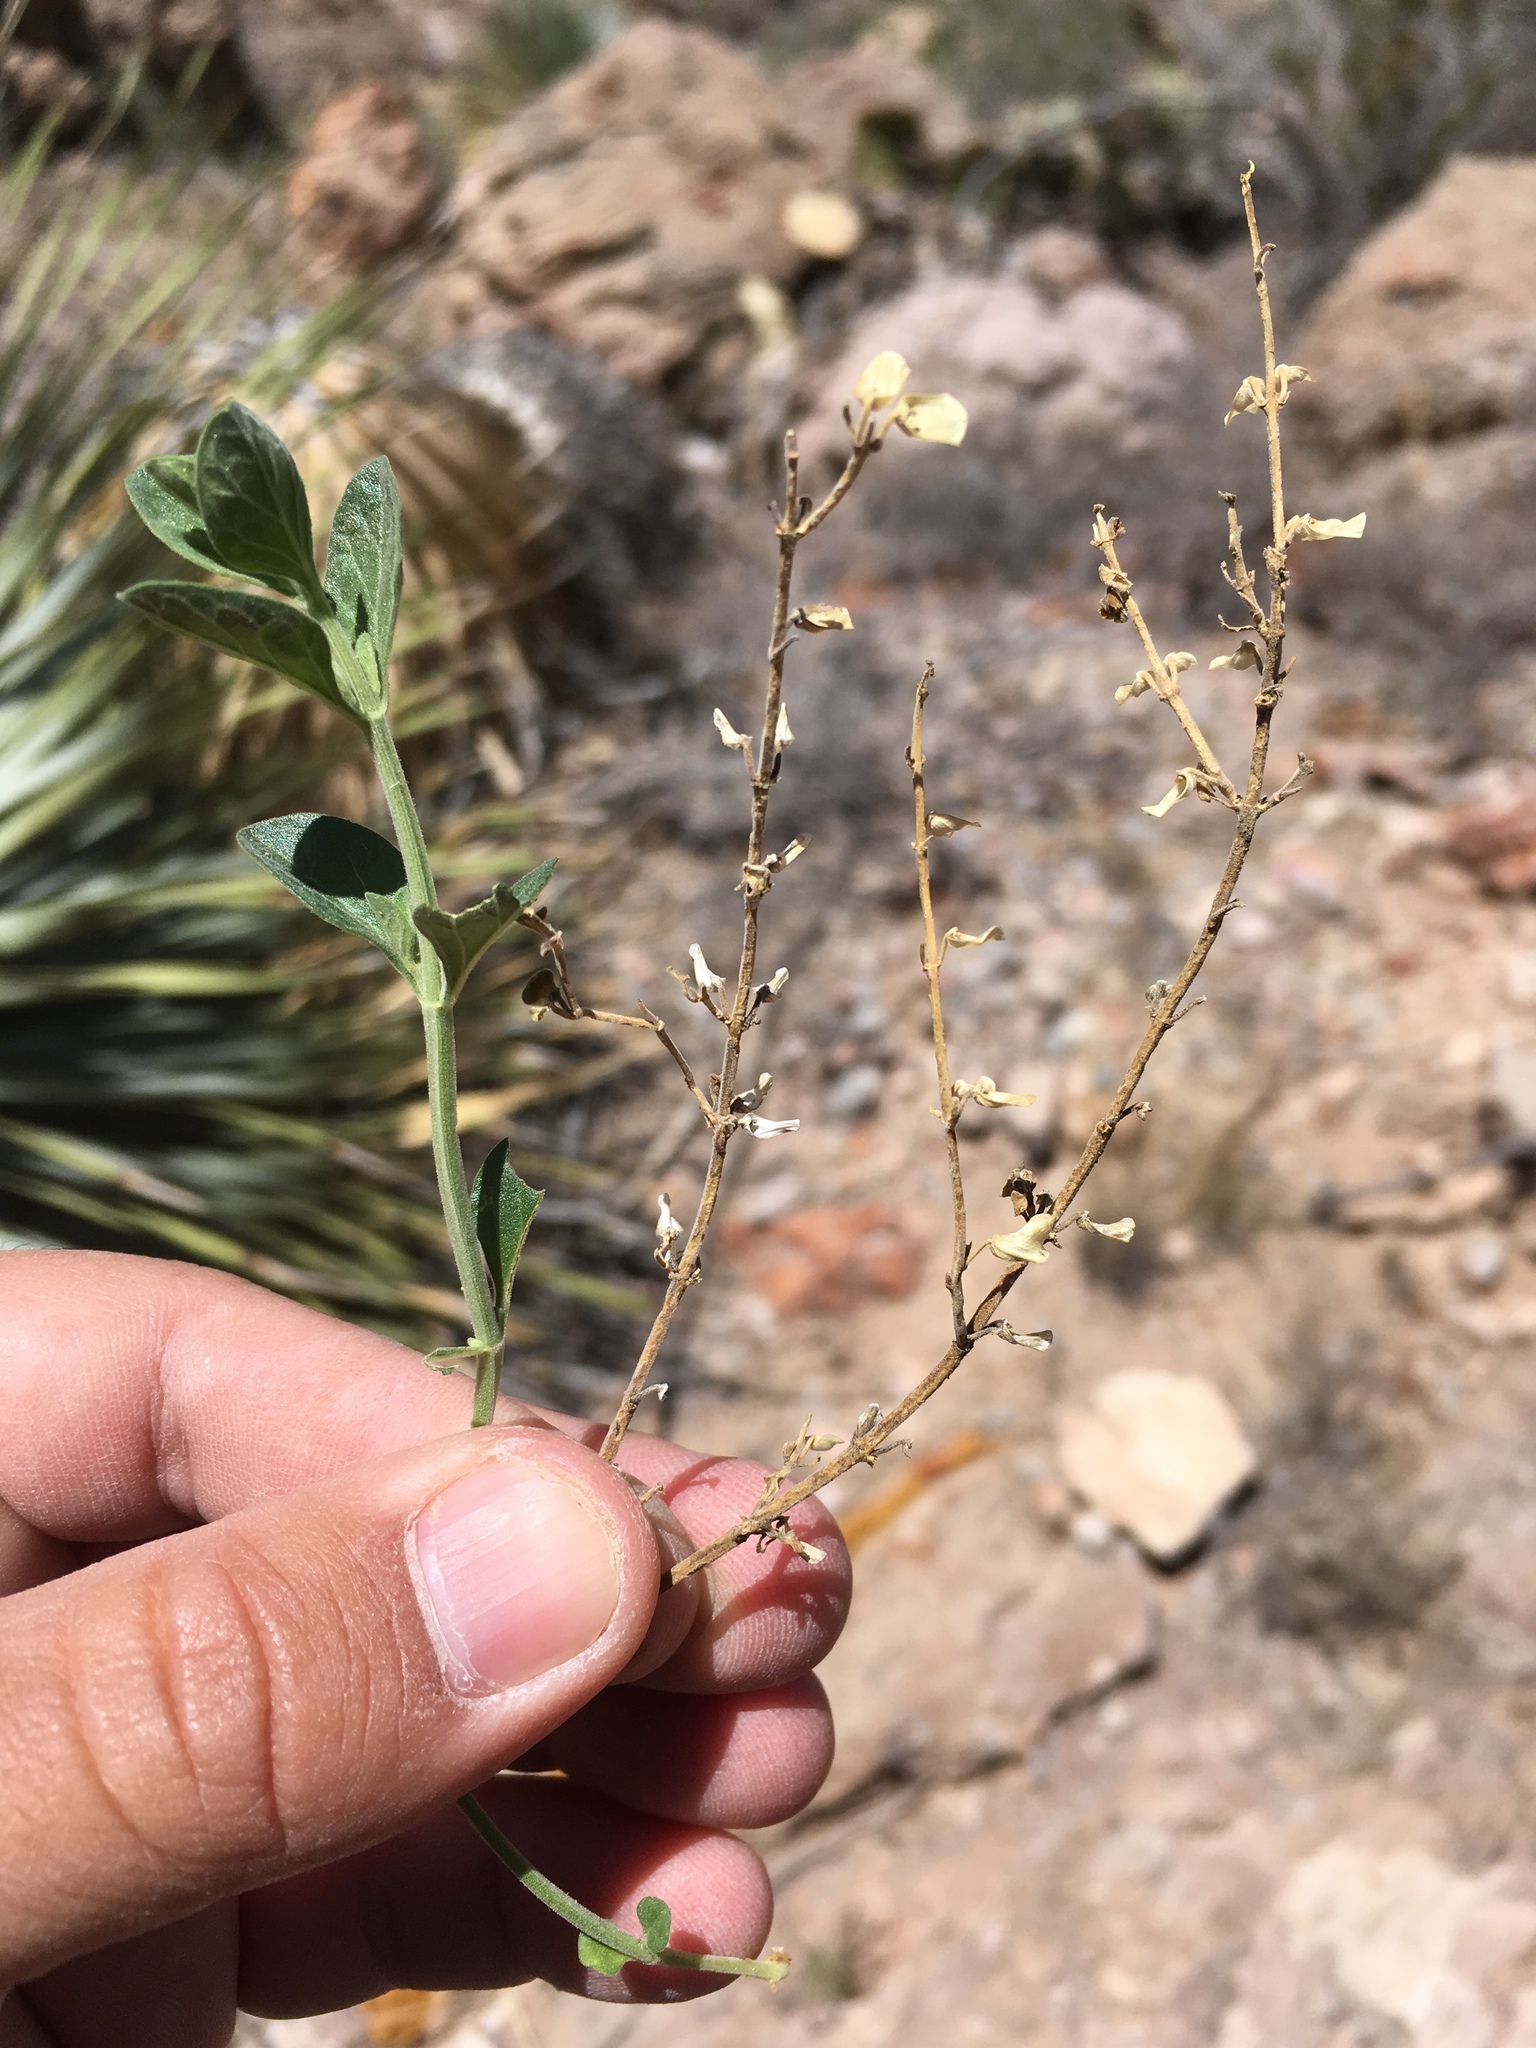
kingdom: Plantae
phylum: Tracheophyta
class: Magnoliopsida
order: Lamiales
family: Lamiaceae
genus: Scutellaria
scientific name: Scutellaria potosina
